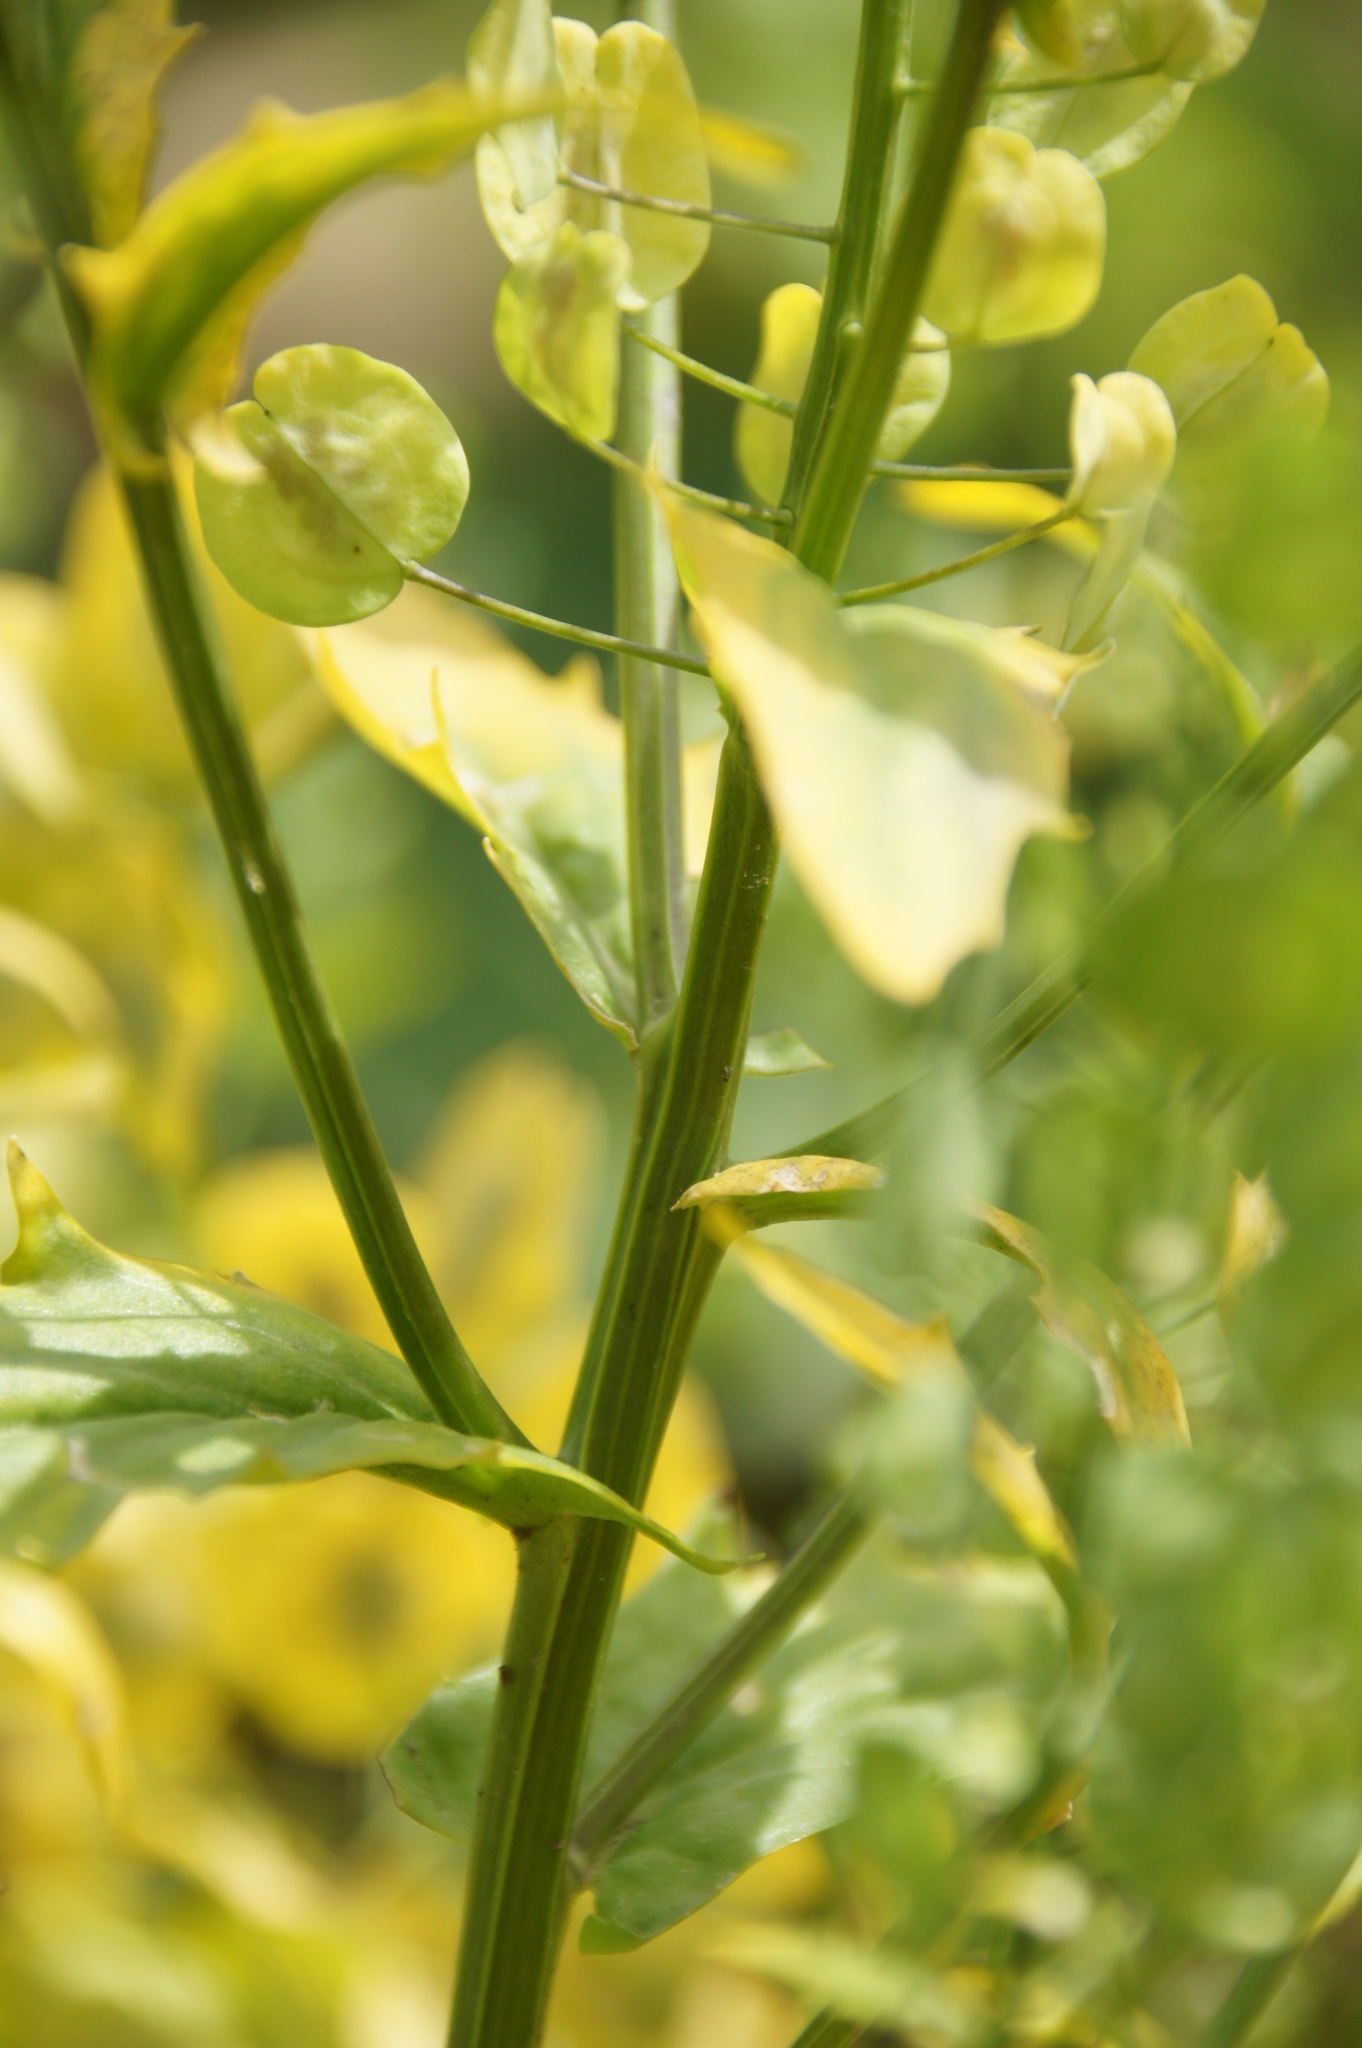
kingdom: Plantae
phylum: Tracheophyta
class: Magnoliopsida
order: Brassicales
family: Brassicaceae
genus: Thlaspi
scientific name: Thlaspi arvense
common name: Field pennycress
